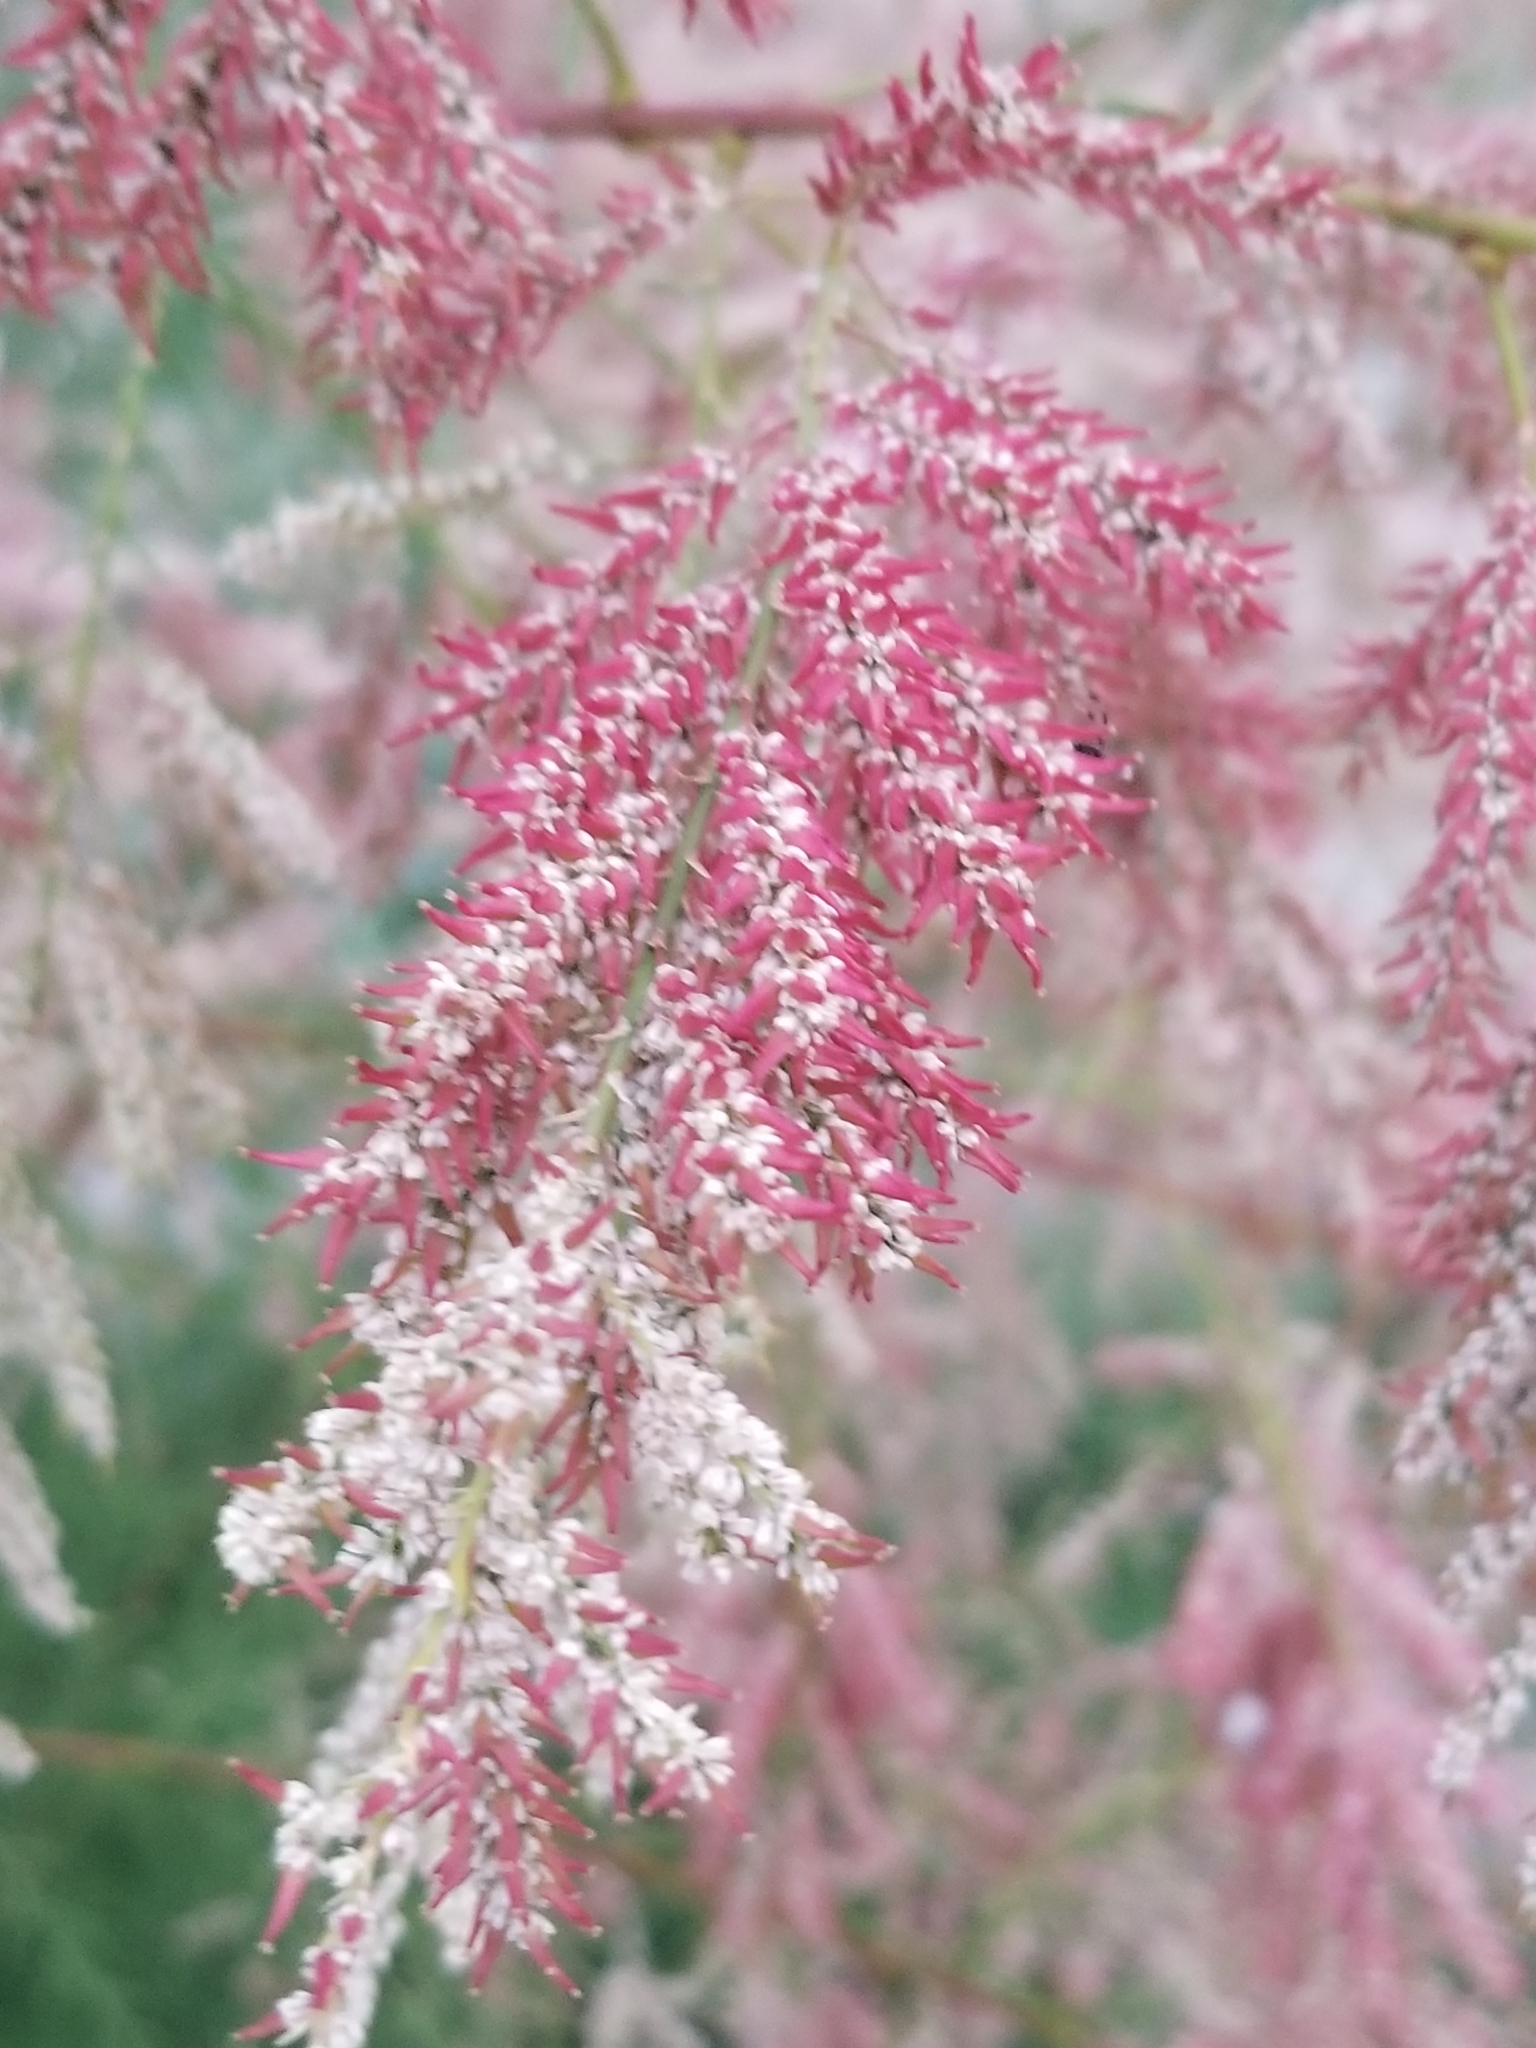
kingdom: Plantae
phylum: Tracheophyta
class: Magnoliopsida
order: Caryophyllales
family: Tamaricaceae
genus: Tamarix
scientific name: Tamarix ramosissima
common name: Pink tamarisk
